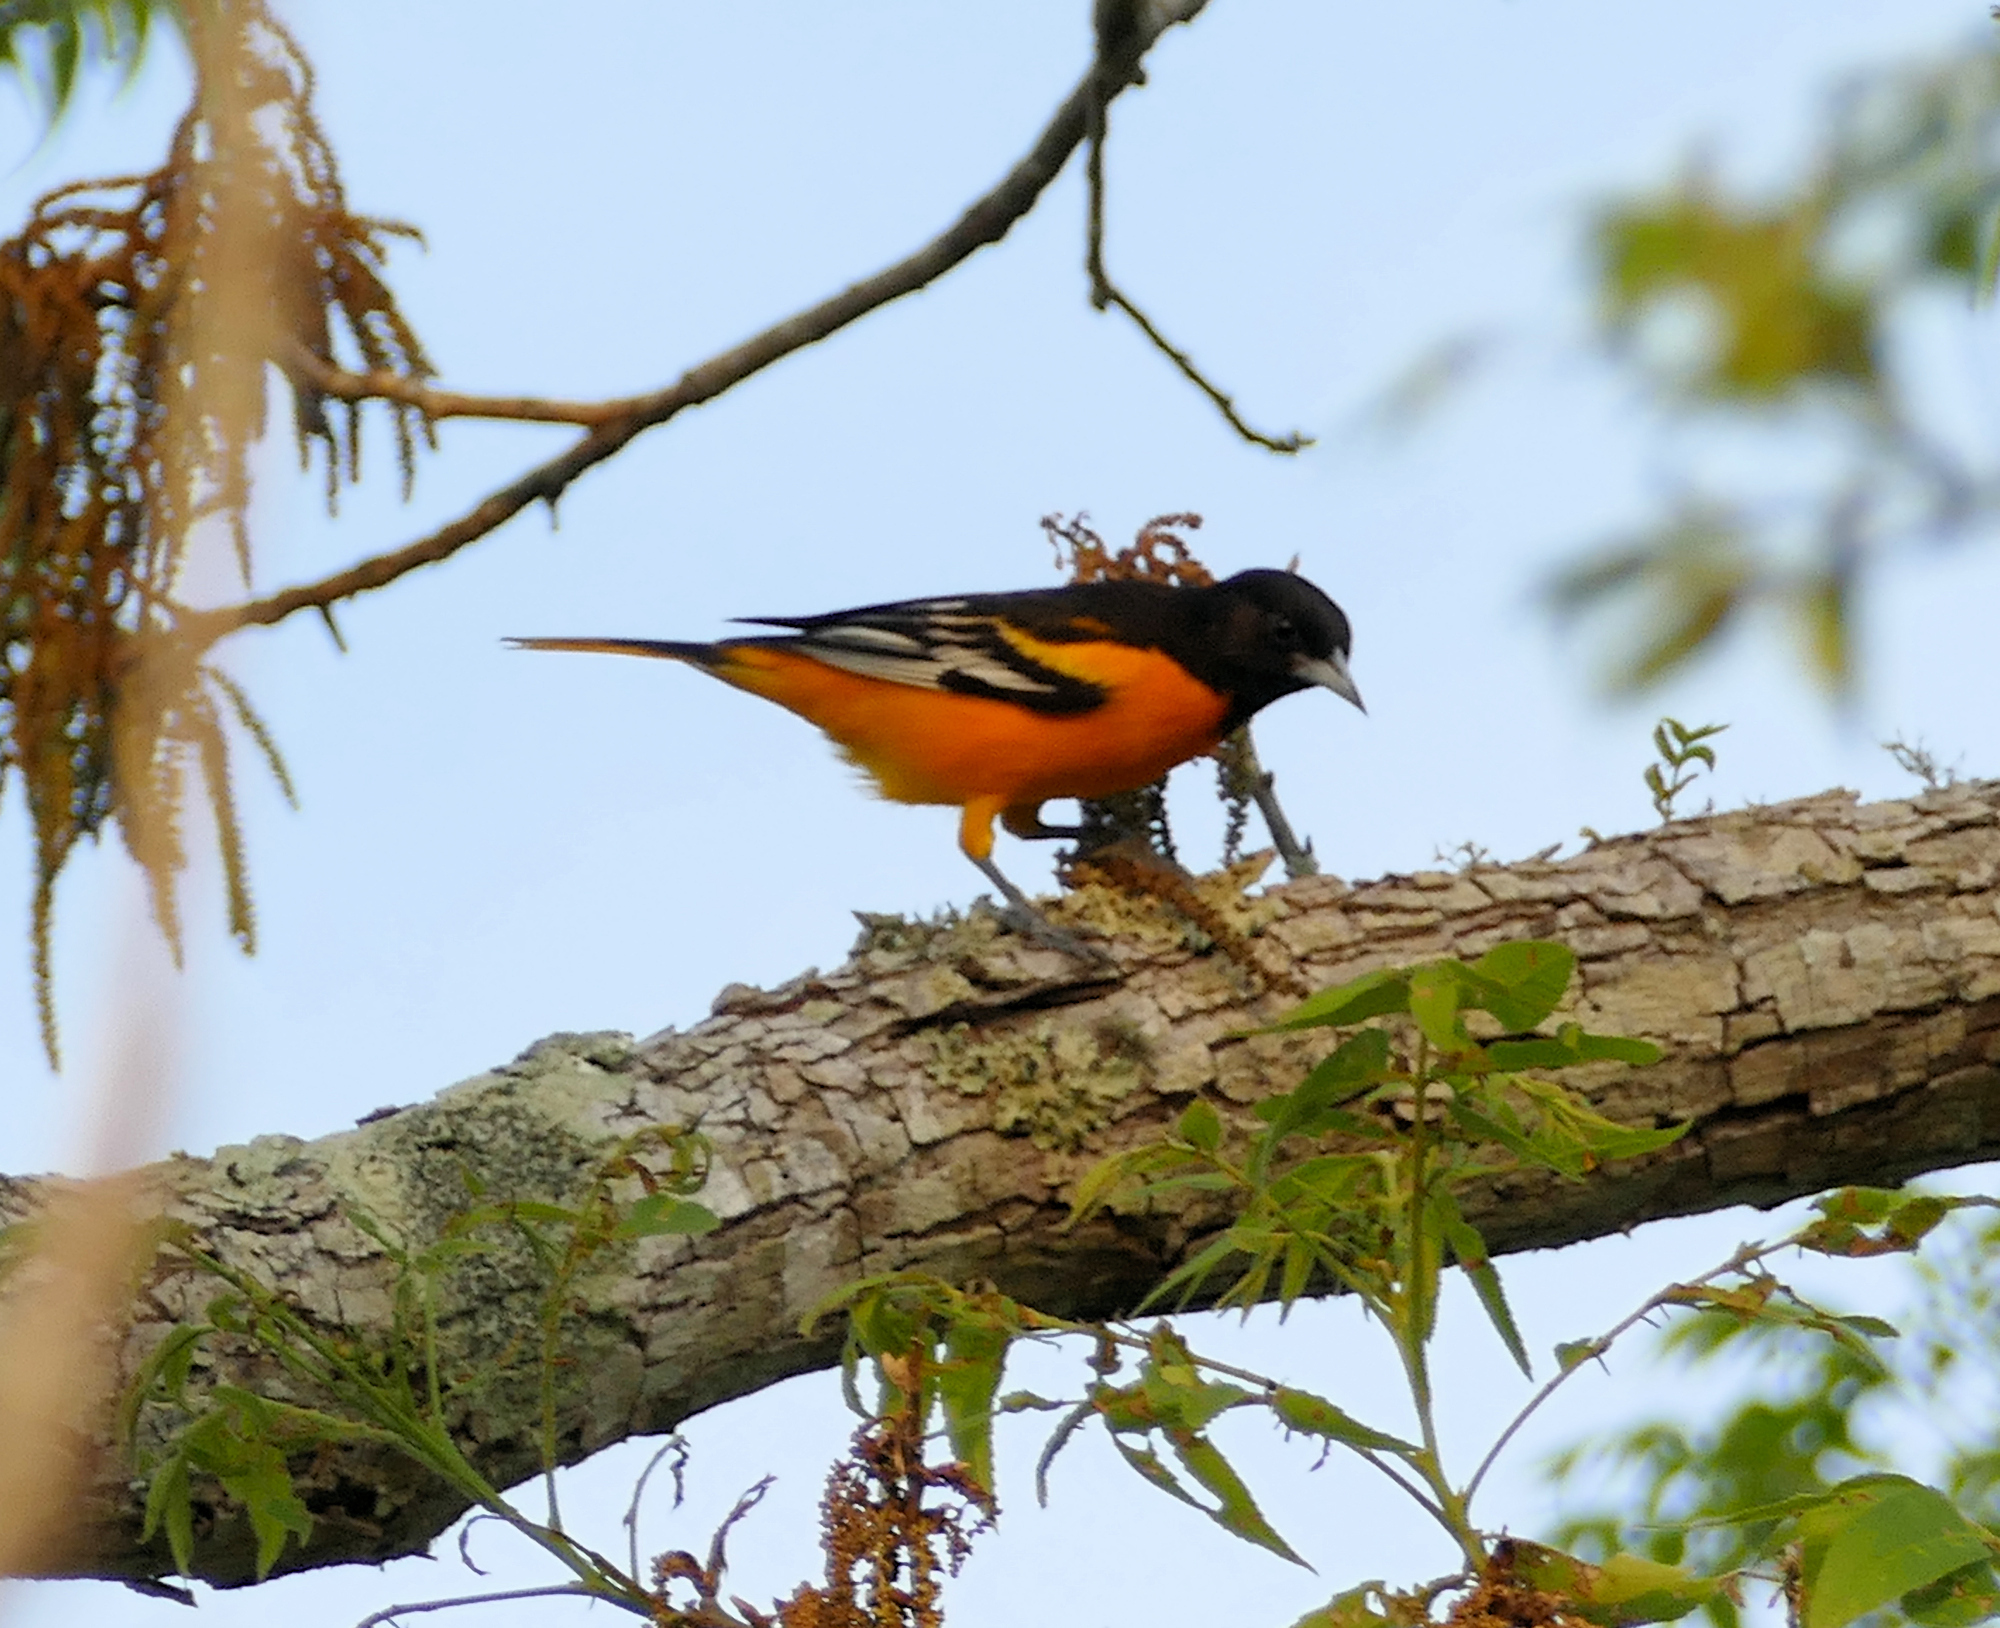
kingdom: Animalia
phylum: Chordata
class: Aves
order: Passeriformes
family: Icteridae
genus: Icterus
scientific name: Icterus galbula
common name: Baltimore oriole
